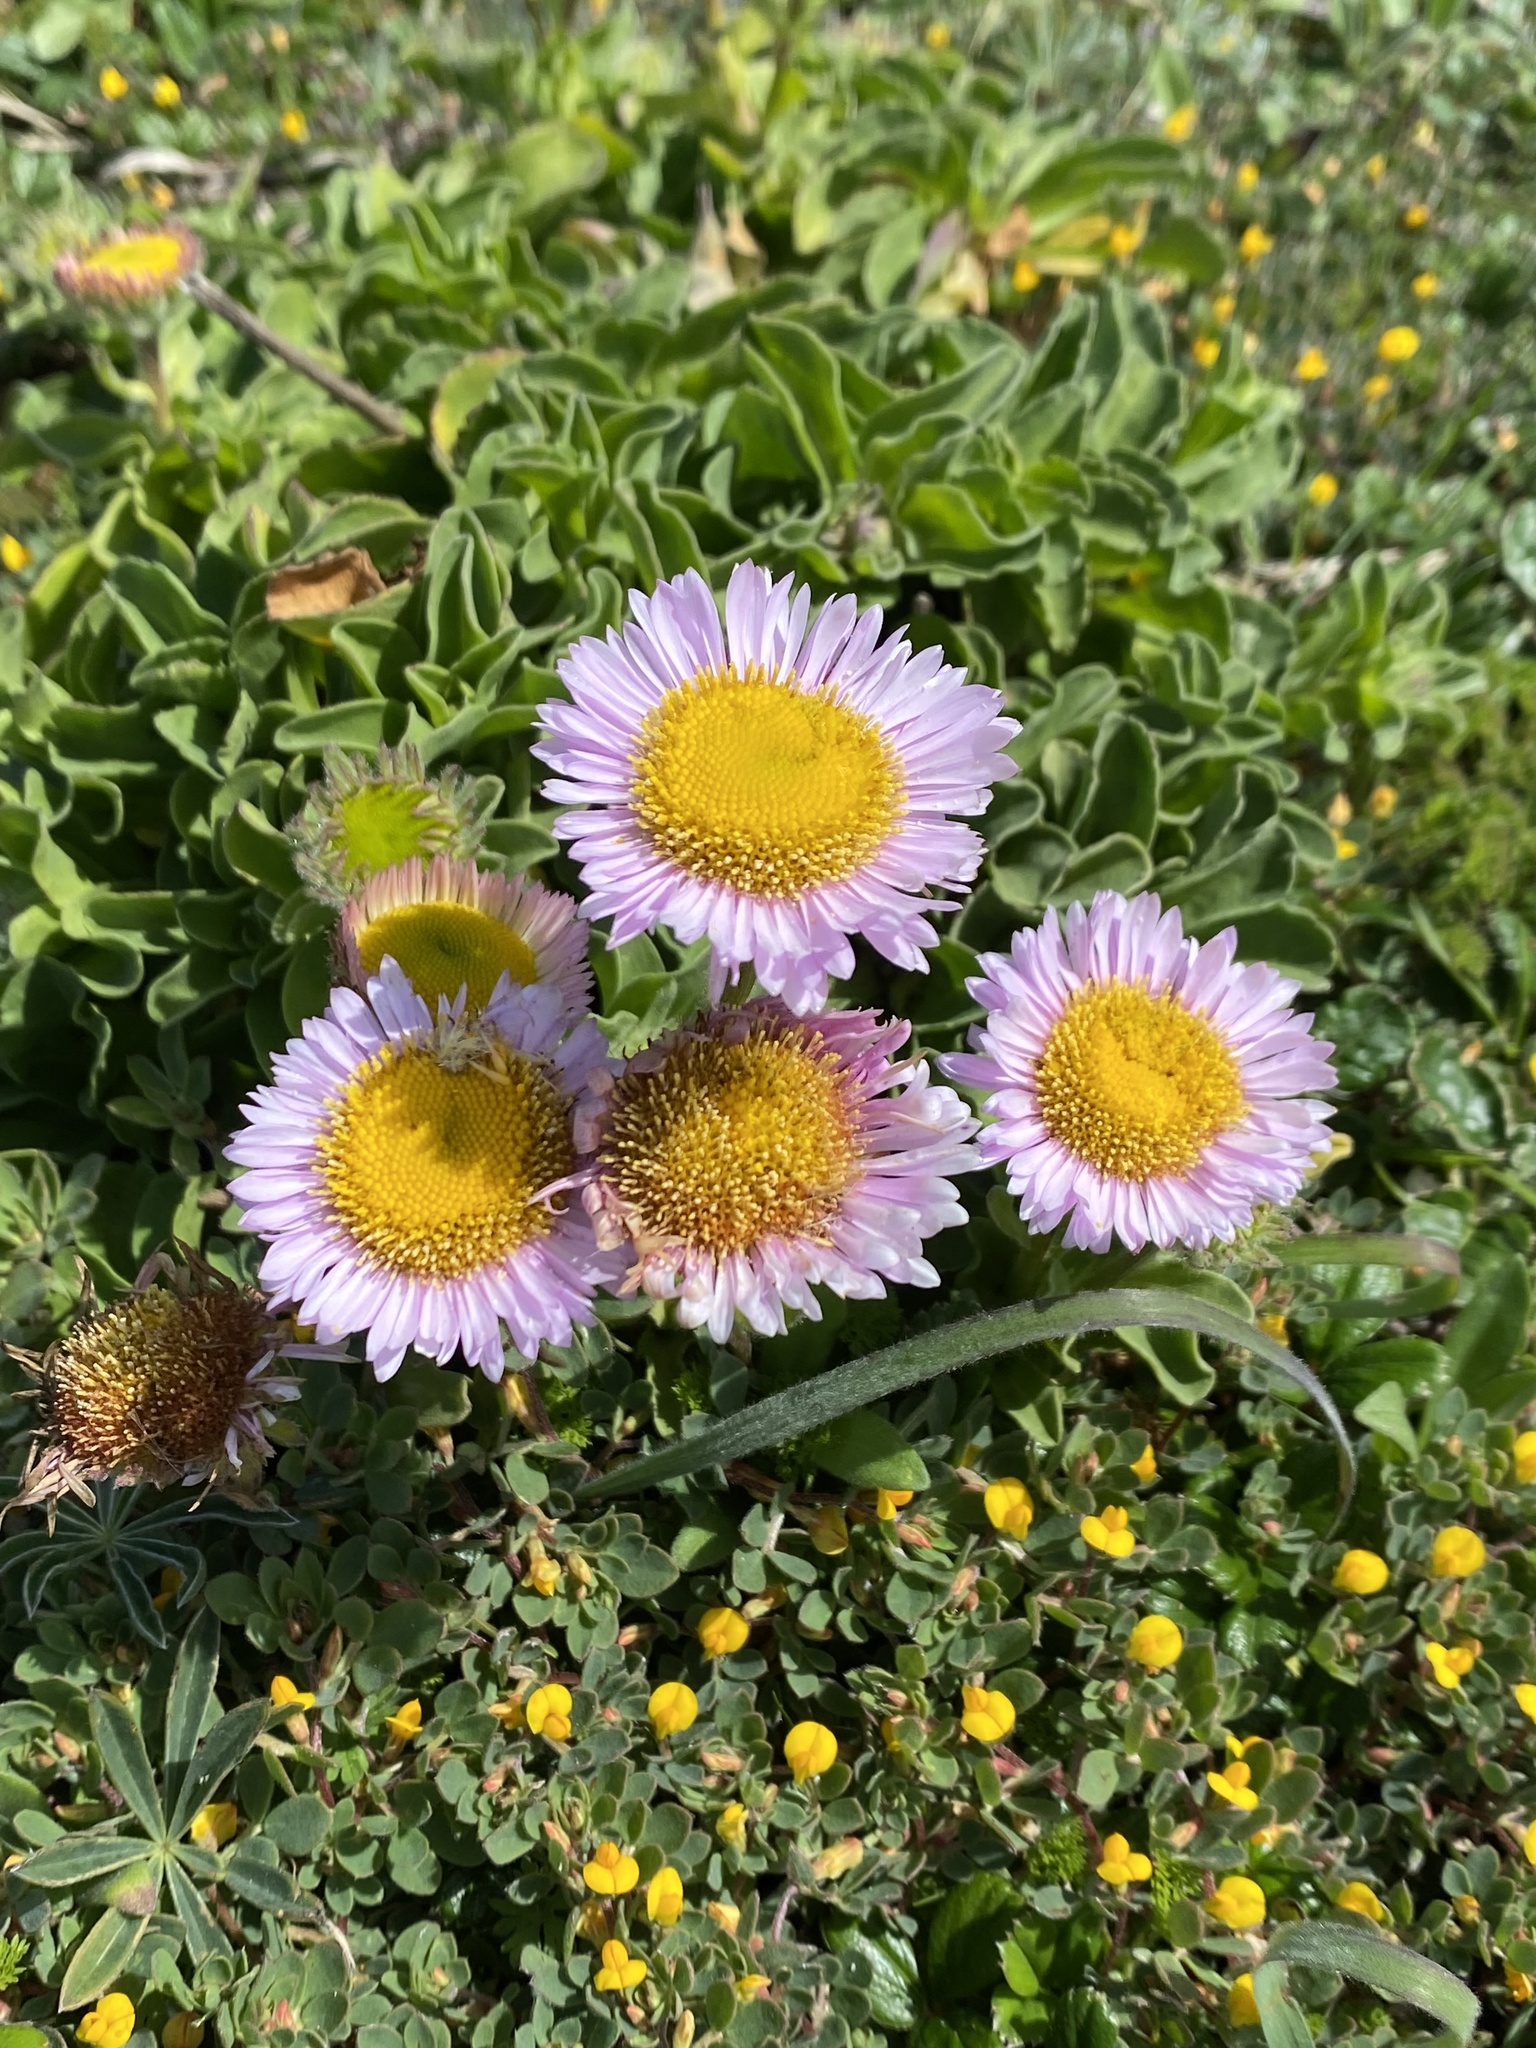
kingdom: Plantae
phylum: Tracheophyta
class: Magnoliopsida
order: Asterales
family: Asteraceae
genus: Erigeron
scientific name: Erigeron glaucus
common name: Seaside daisy
